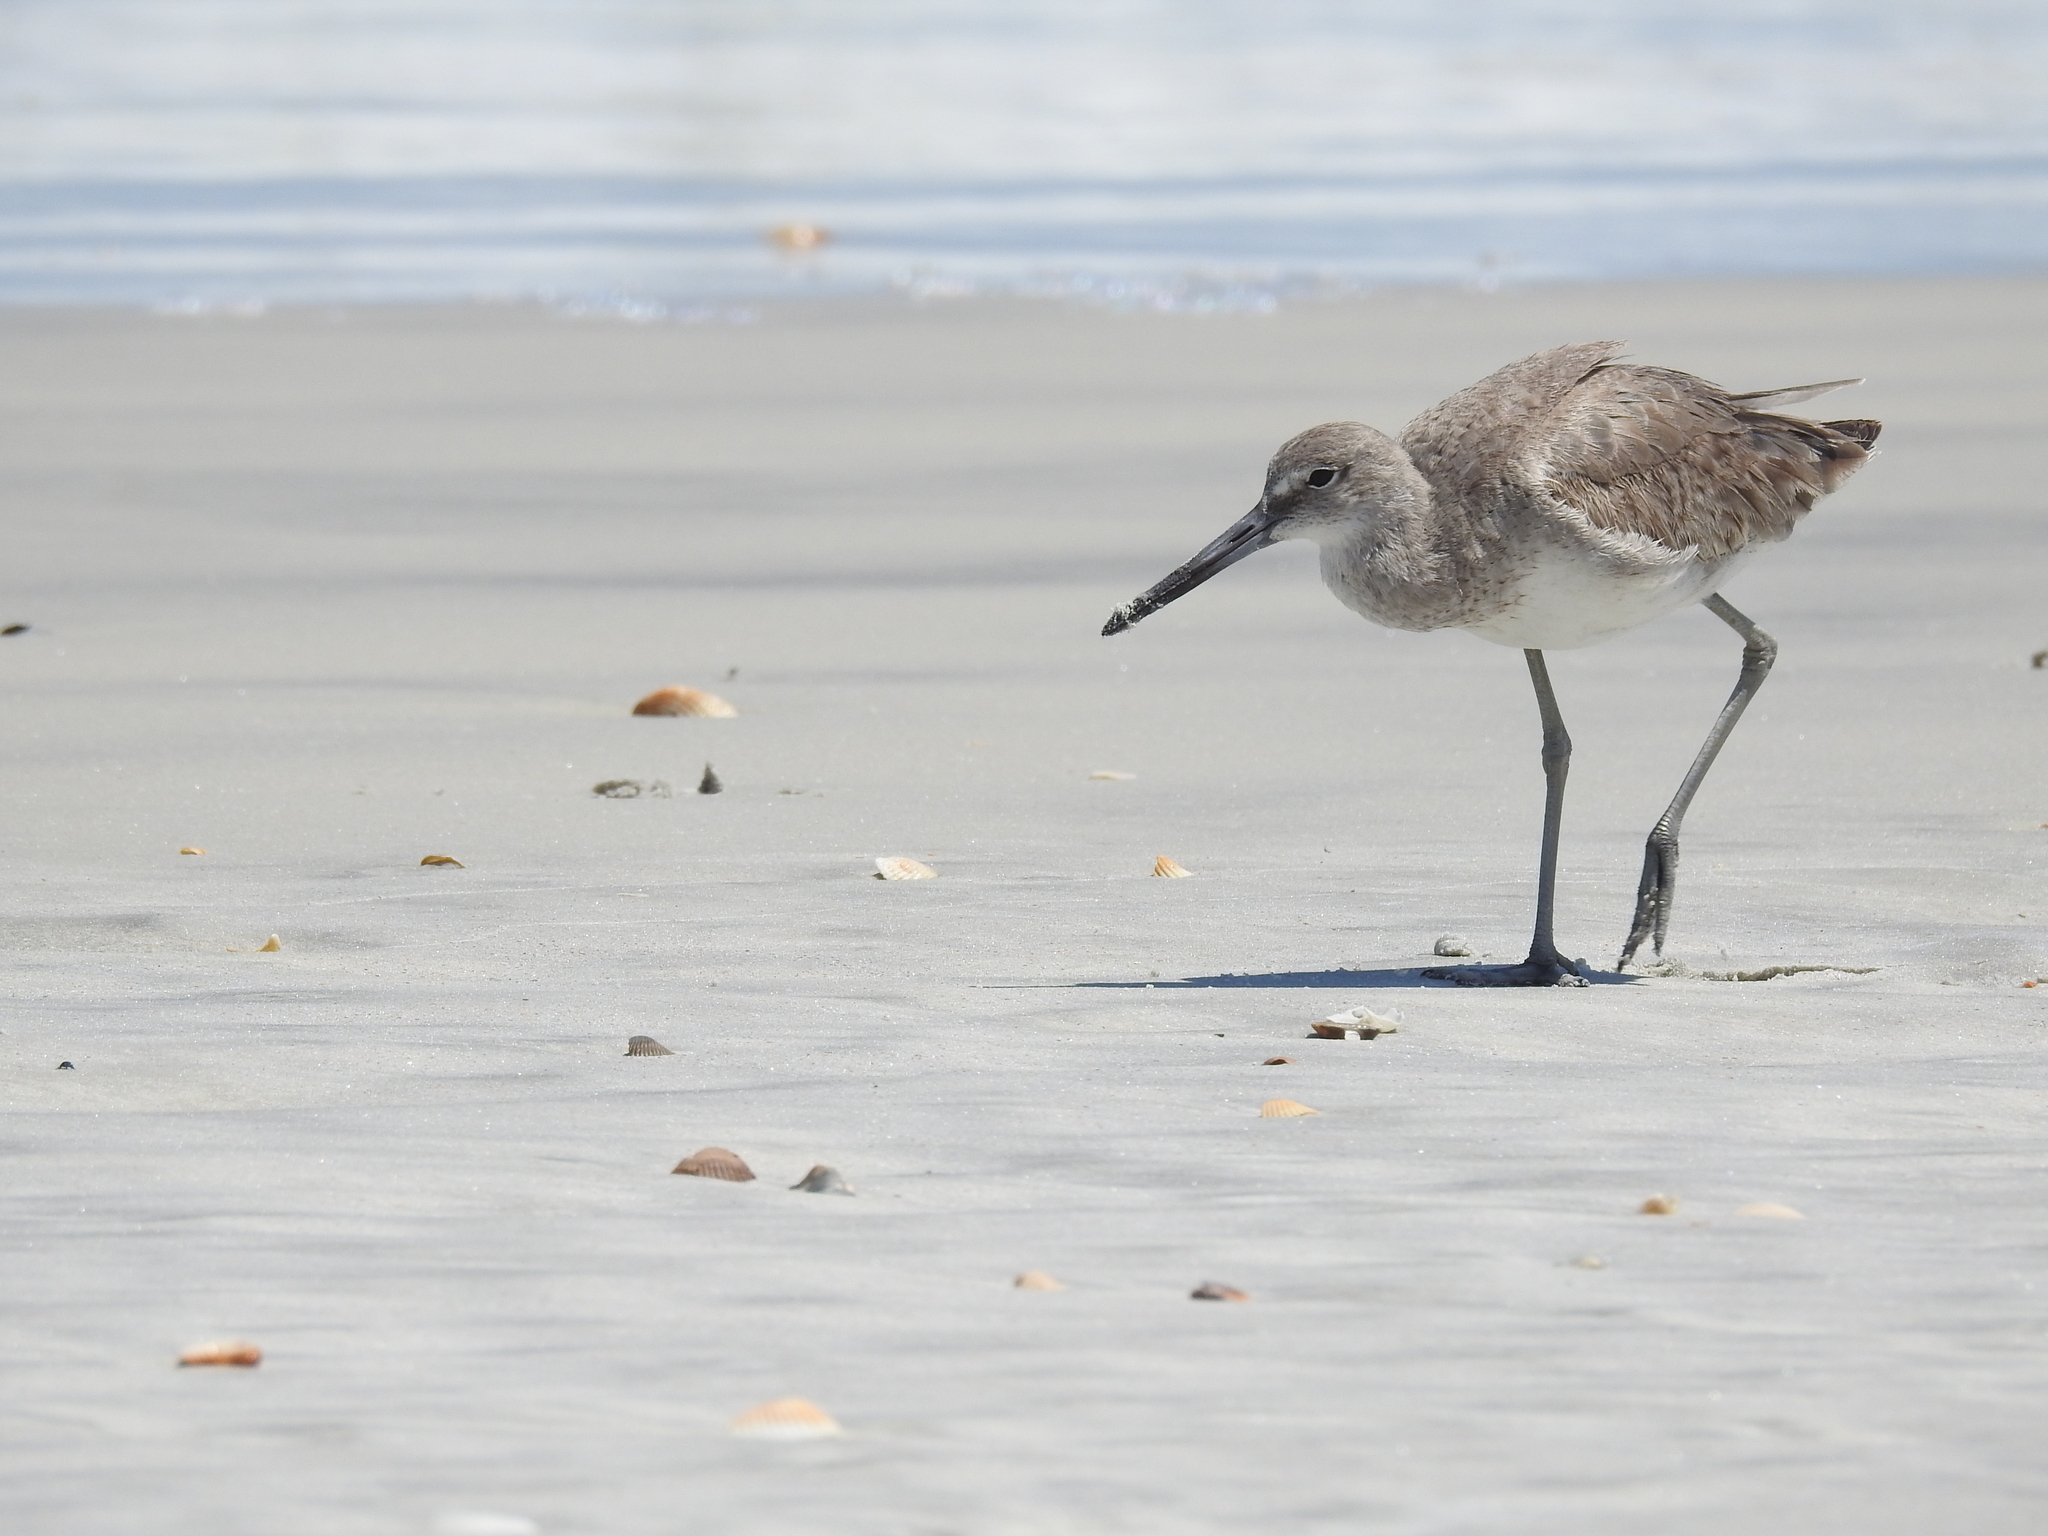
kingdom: Animalia
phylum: Chordata
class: Aves
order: Charadriiformes
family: Scolopacidae
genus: Tringa
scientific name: Tringa semipalmata
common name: Willet
